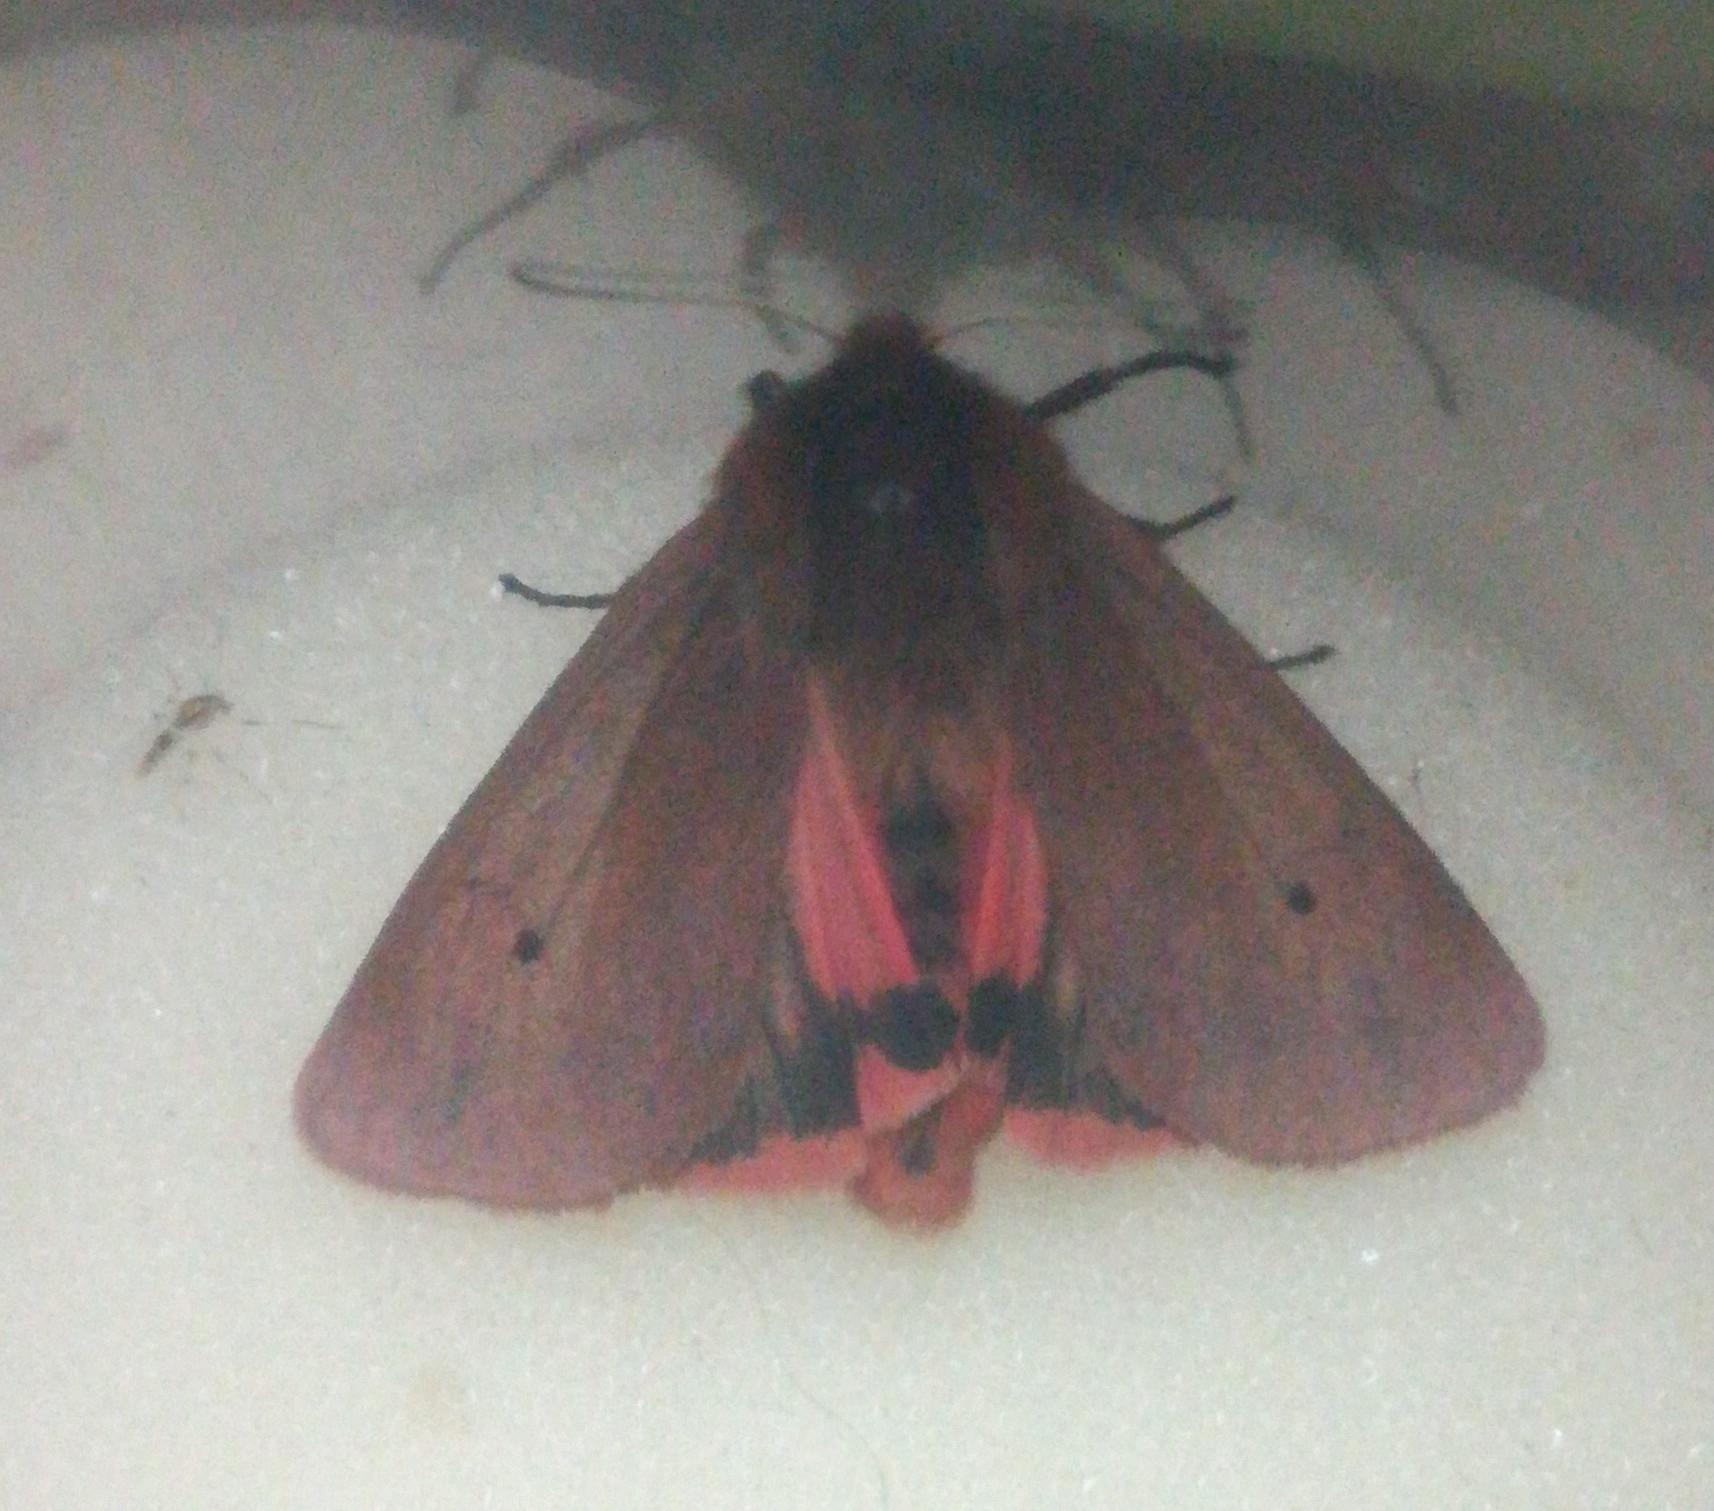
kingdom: Animalia
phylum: Arthropoda
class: Insecta
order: Lepidoptera
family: Erebidae
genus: Phragmatobia
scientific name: Phragmatobia fuliginosa
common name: Ruby tiger
